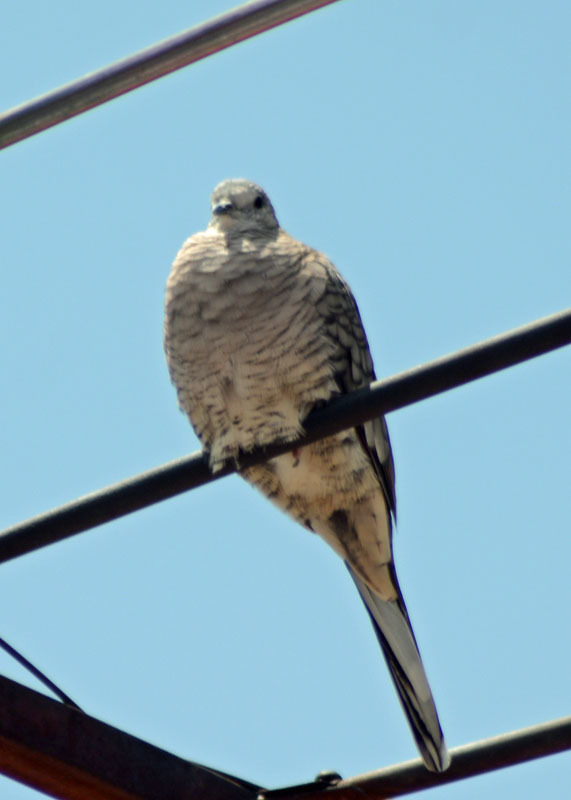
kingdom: Animalia
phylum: Chordata
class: Aves
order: Columbiformes
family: Columbidae
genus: Columbina
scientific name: Columbina inca
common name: Inca dove
